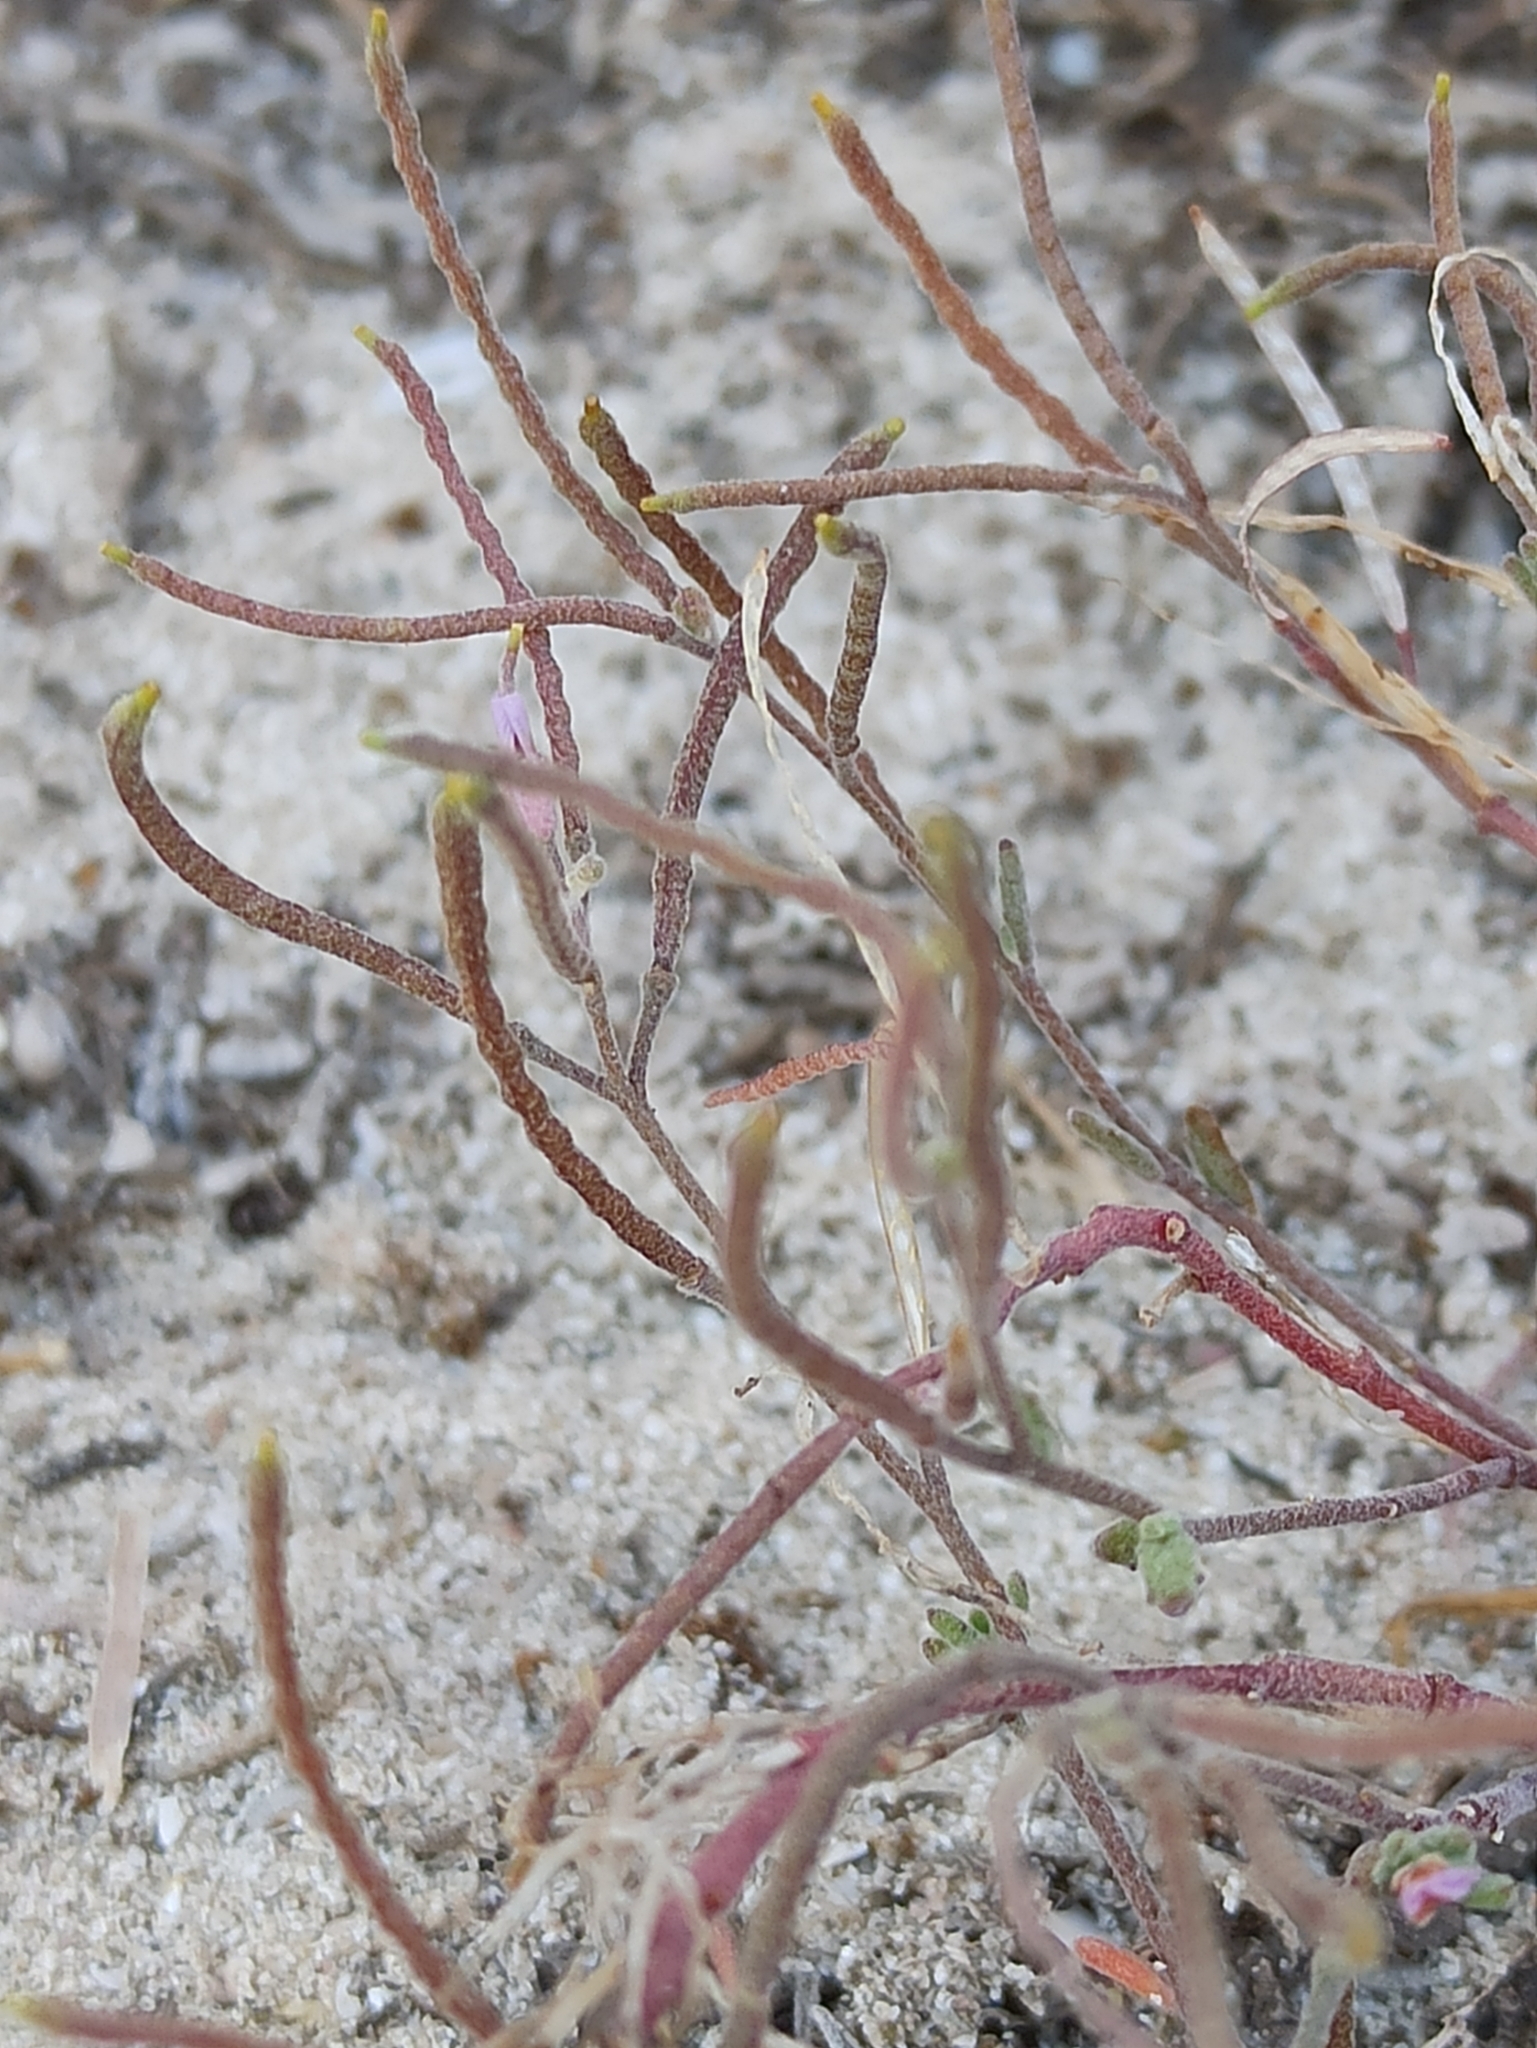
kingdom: Plantae
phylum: Tracheophyta
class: Magnoliopsida
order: Brassicales
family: Brassicaceae
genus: Maresia
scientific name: Maresia nana
